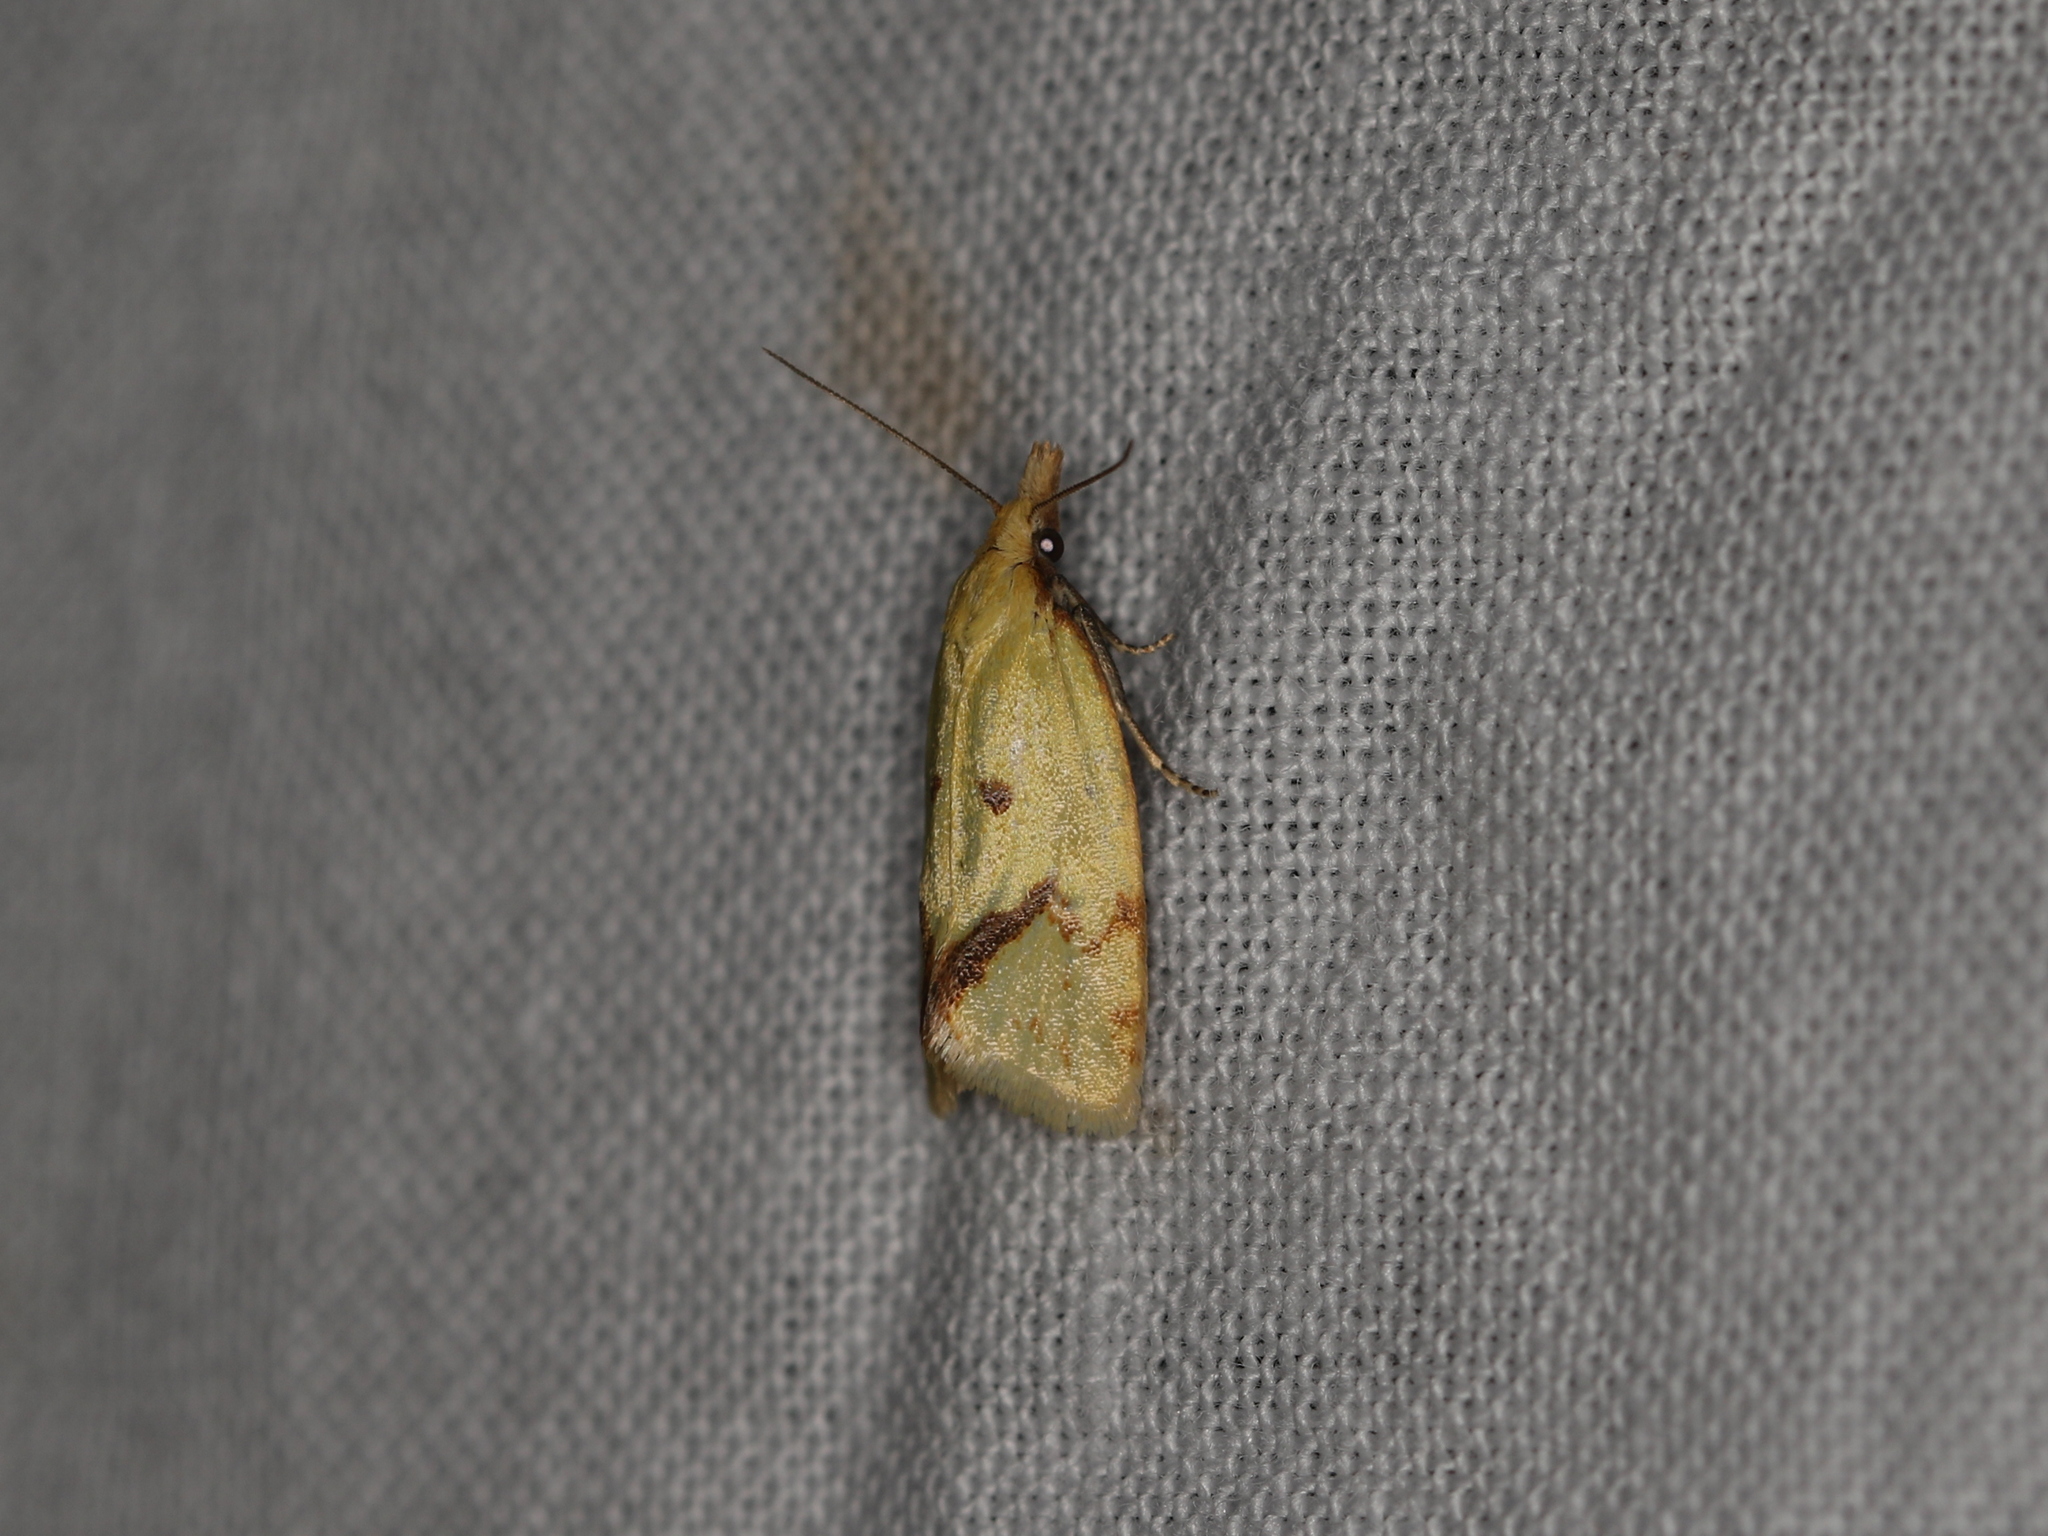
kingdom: Animalia
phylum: Arthropoda
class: Insecta
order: Lepidoptera
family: Tortricidae
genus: Agapeta
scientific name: Agapeta hamana
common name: Common yellow conch
